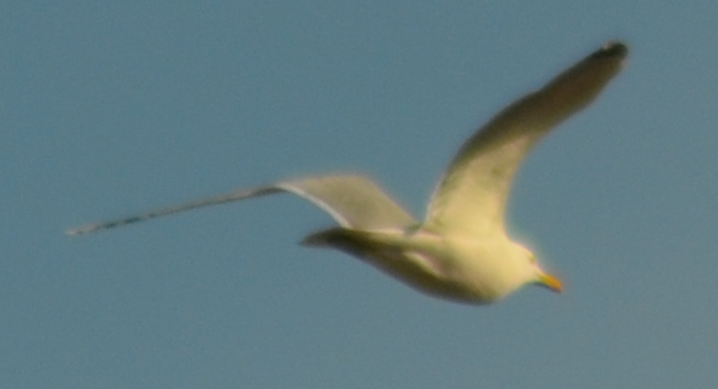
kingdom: Animalia
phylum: Chordata
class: Aves
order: Charadriiformes
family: Laridae
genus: Larus
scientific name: Larus michahellis
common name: Yellow-legged gull
